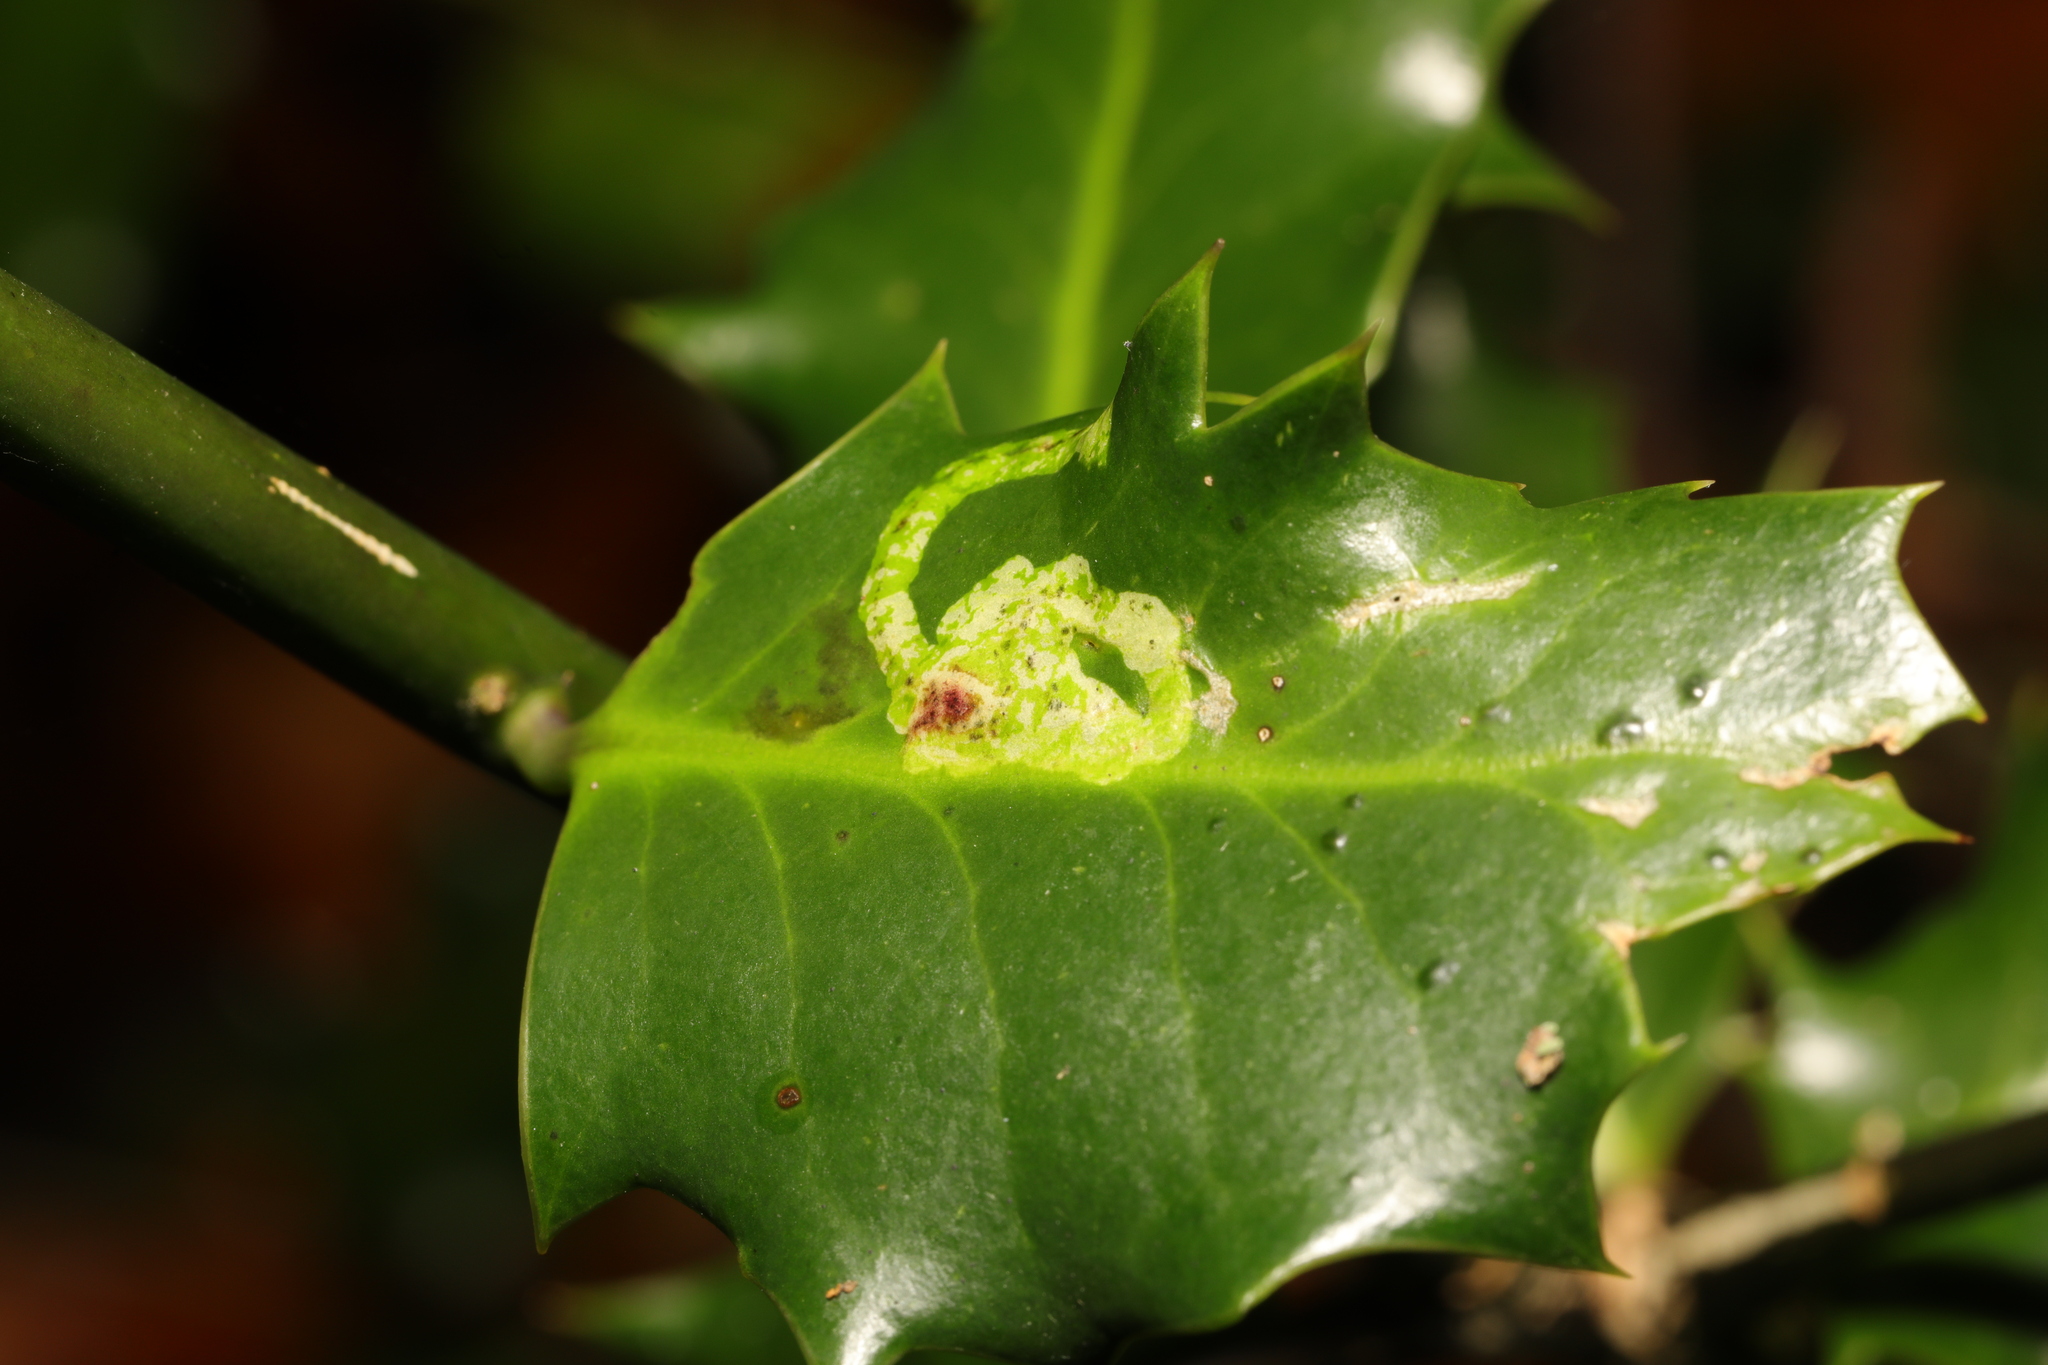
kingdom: Animalia
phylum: Arthropoda
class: Insecta
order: Diptera
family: Agromyzidae
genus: Phytomyza
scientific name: Phytomyza ilicis
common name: Holly leafminer
